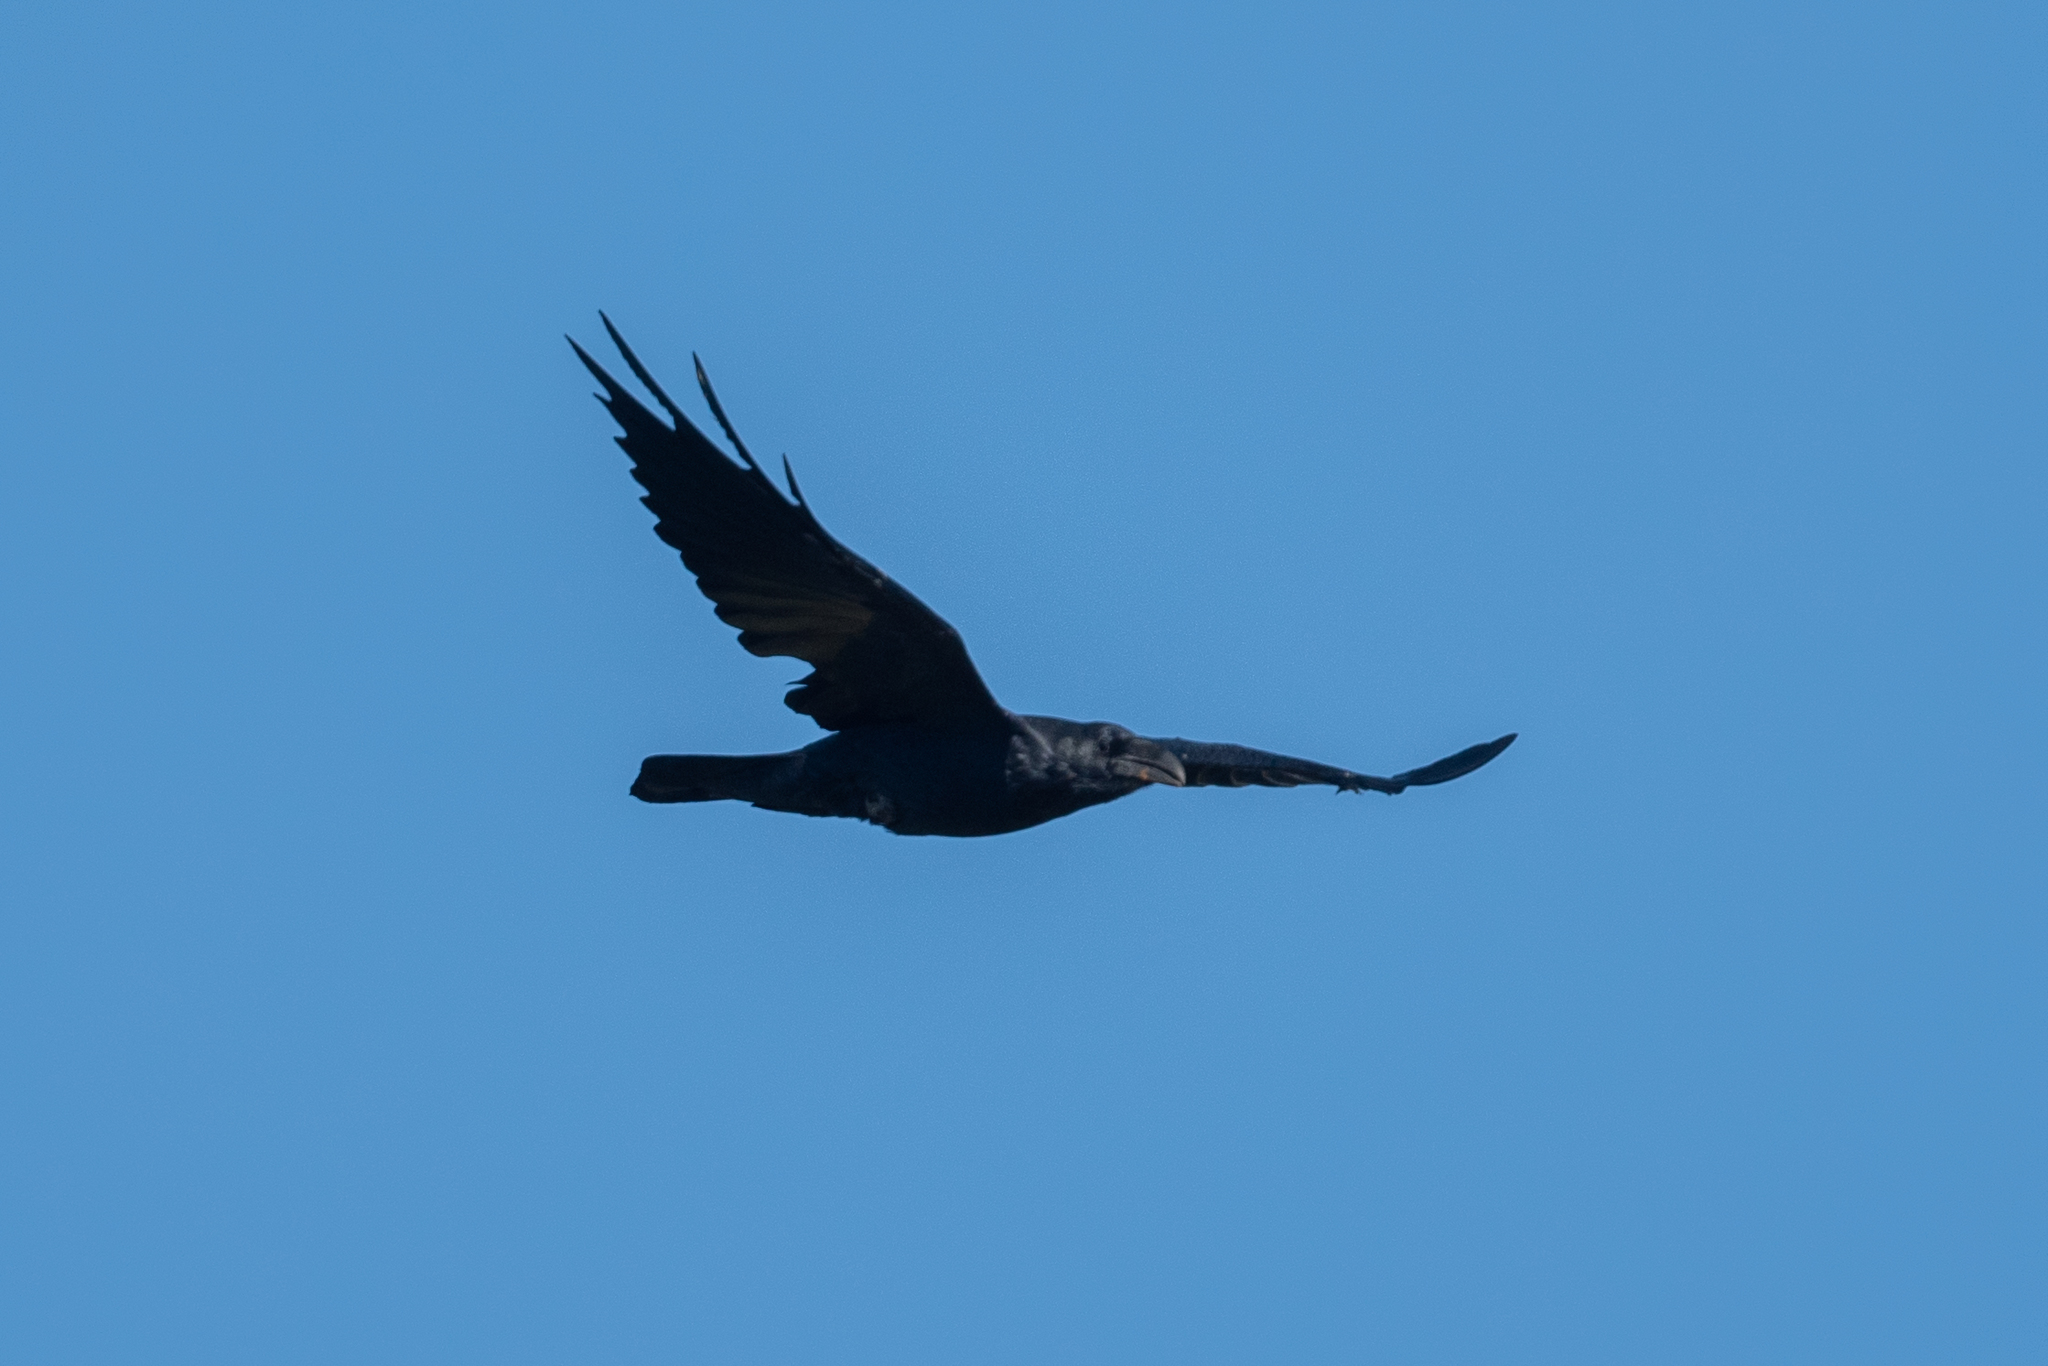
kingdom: Animalia
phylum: Chordata
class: Aves
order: Passeriformes
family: Corvidae
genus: Corvus
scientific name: Corvus corax
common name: Common raven
